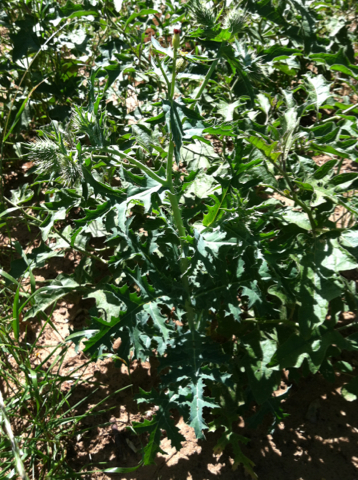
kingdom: Plantae
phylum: Tracheophyta
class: Magnoliopsida
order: Ranunculales
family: Papaveraceae
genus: Argemone
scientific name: Argemone albiflora
